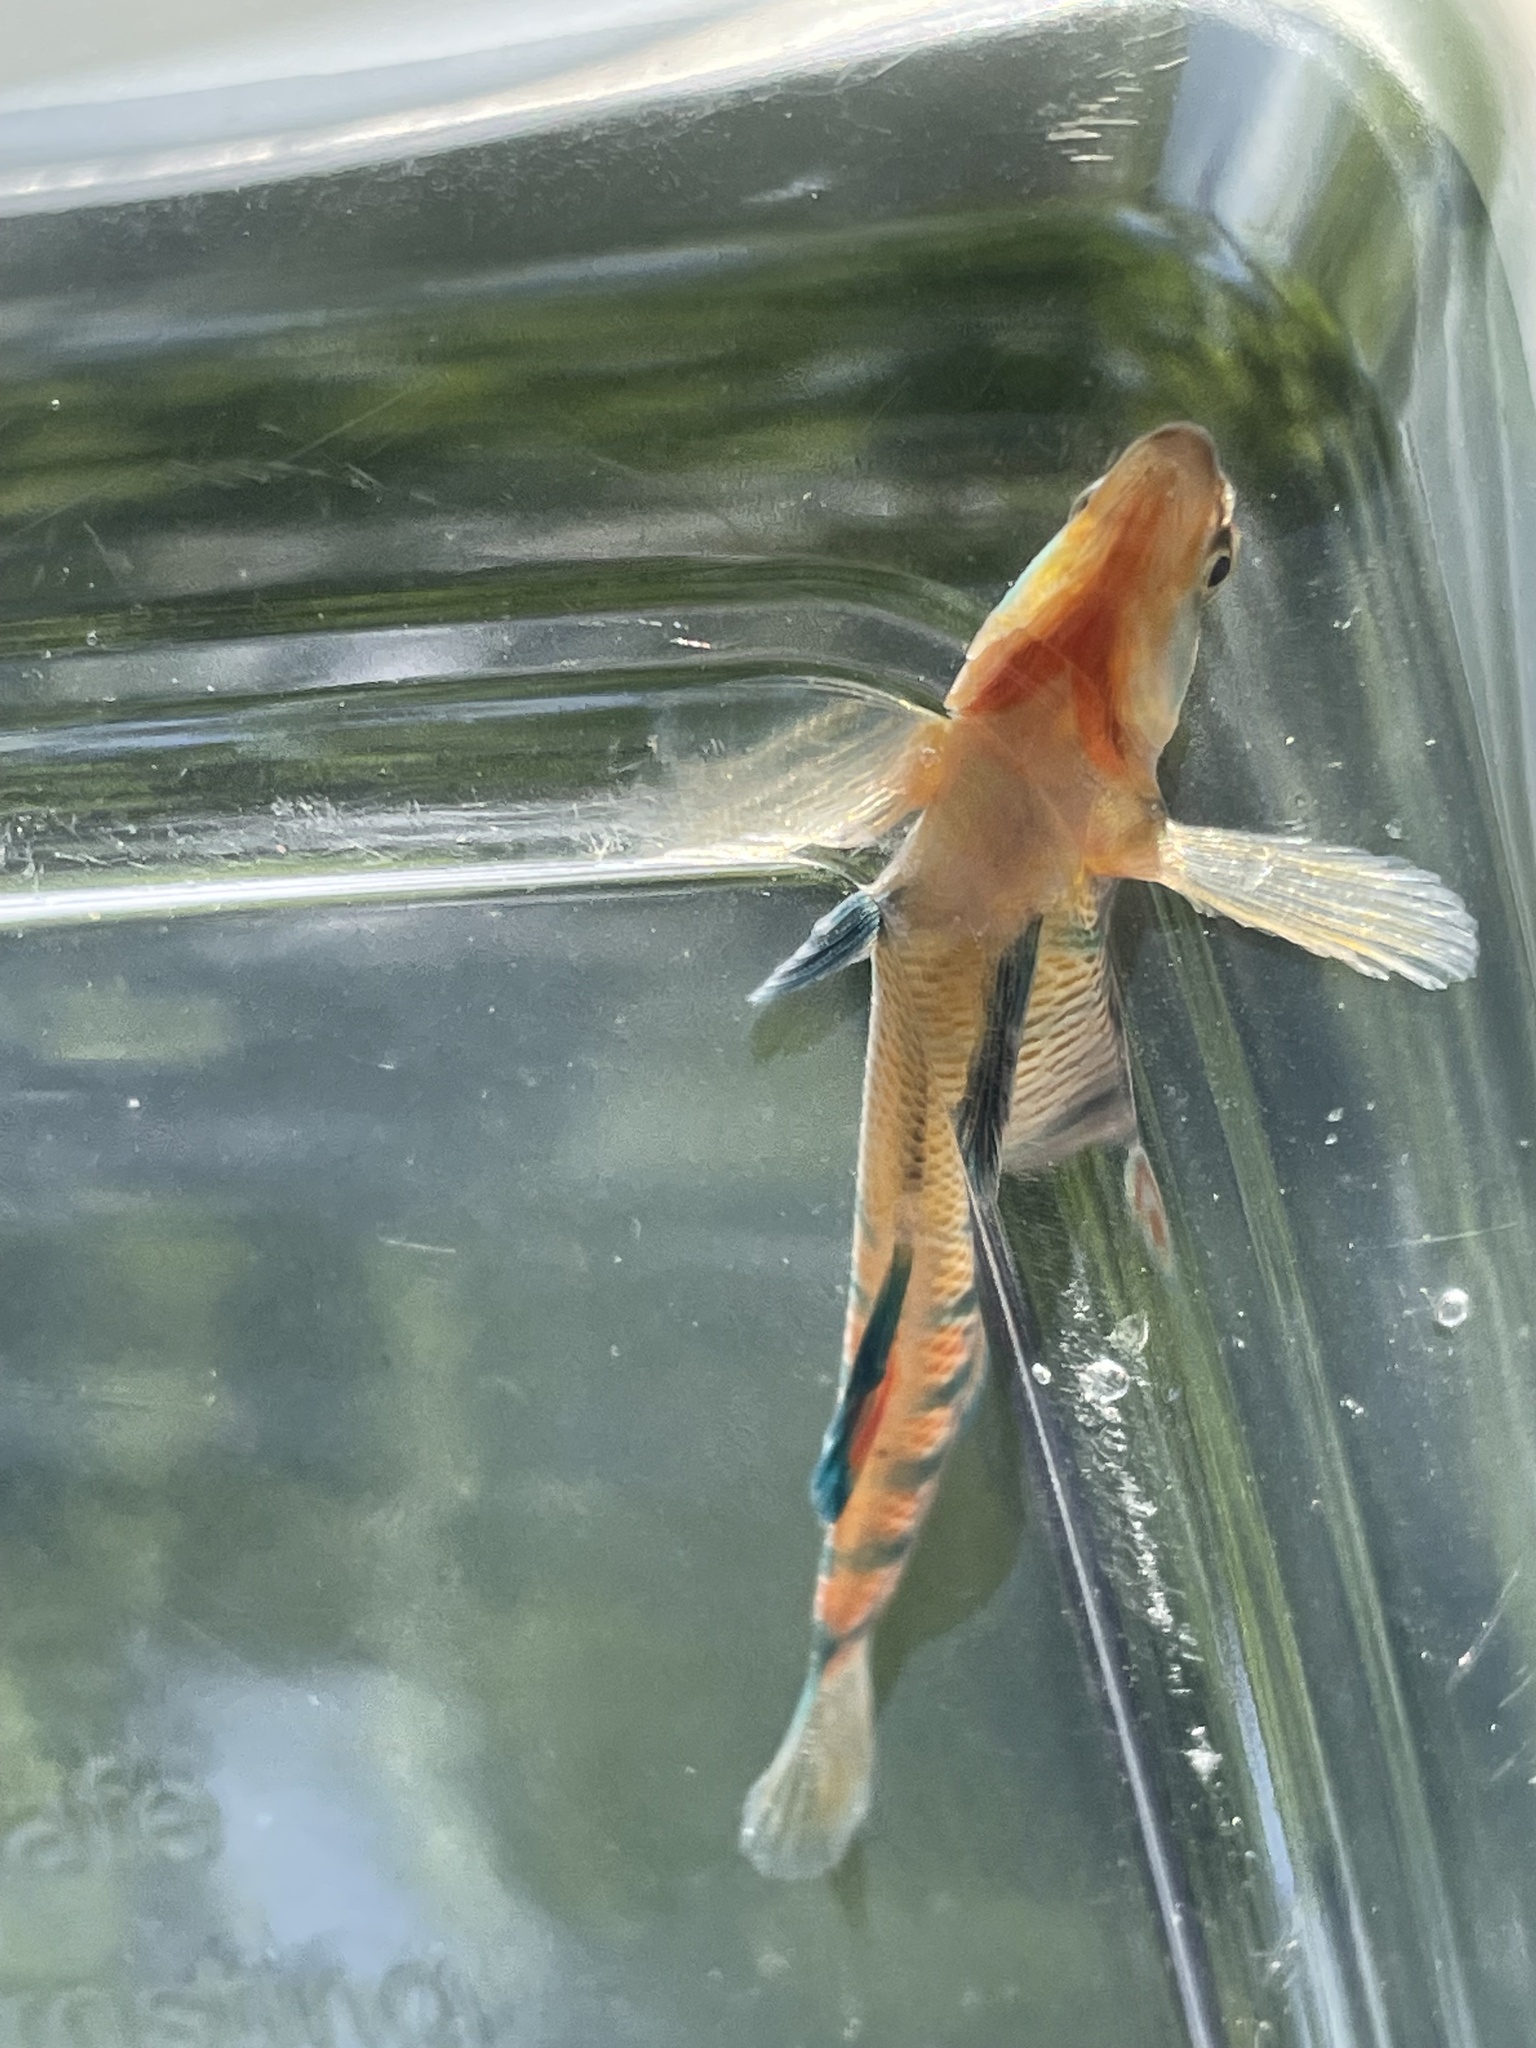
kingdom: Animalia
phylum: Chordata
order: Perciformes
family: Percidae
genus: Etheostoma
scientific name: Etheostoma caeruleum
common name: Rainbow darter
